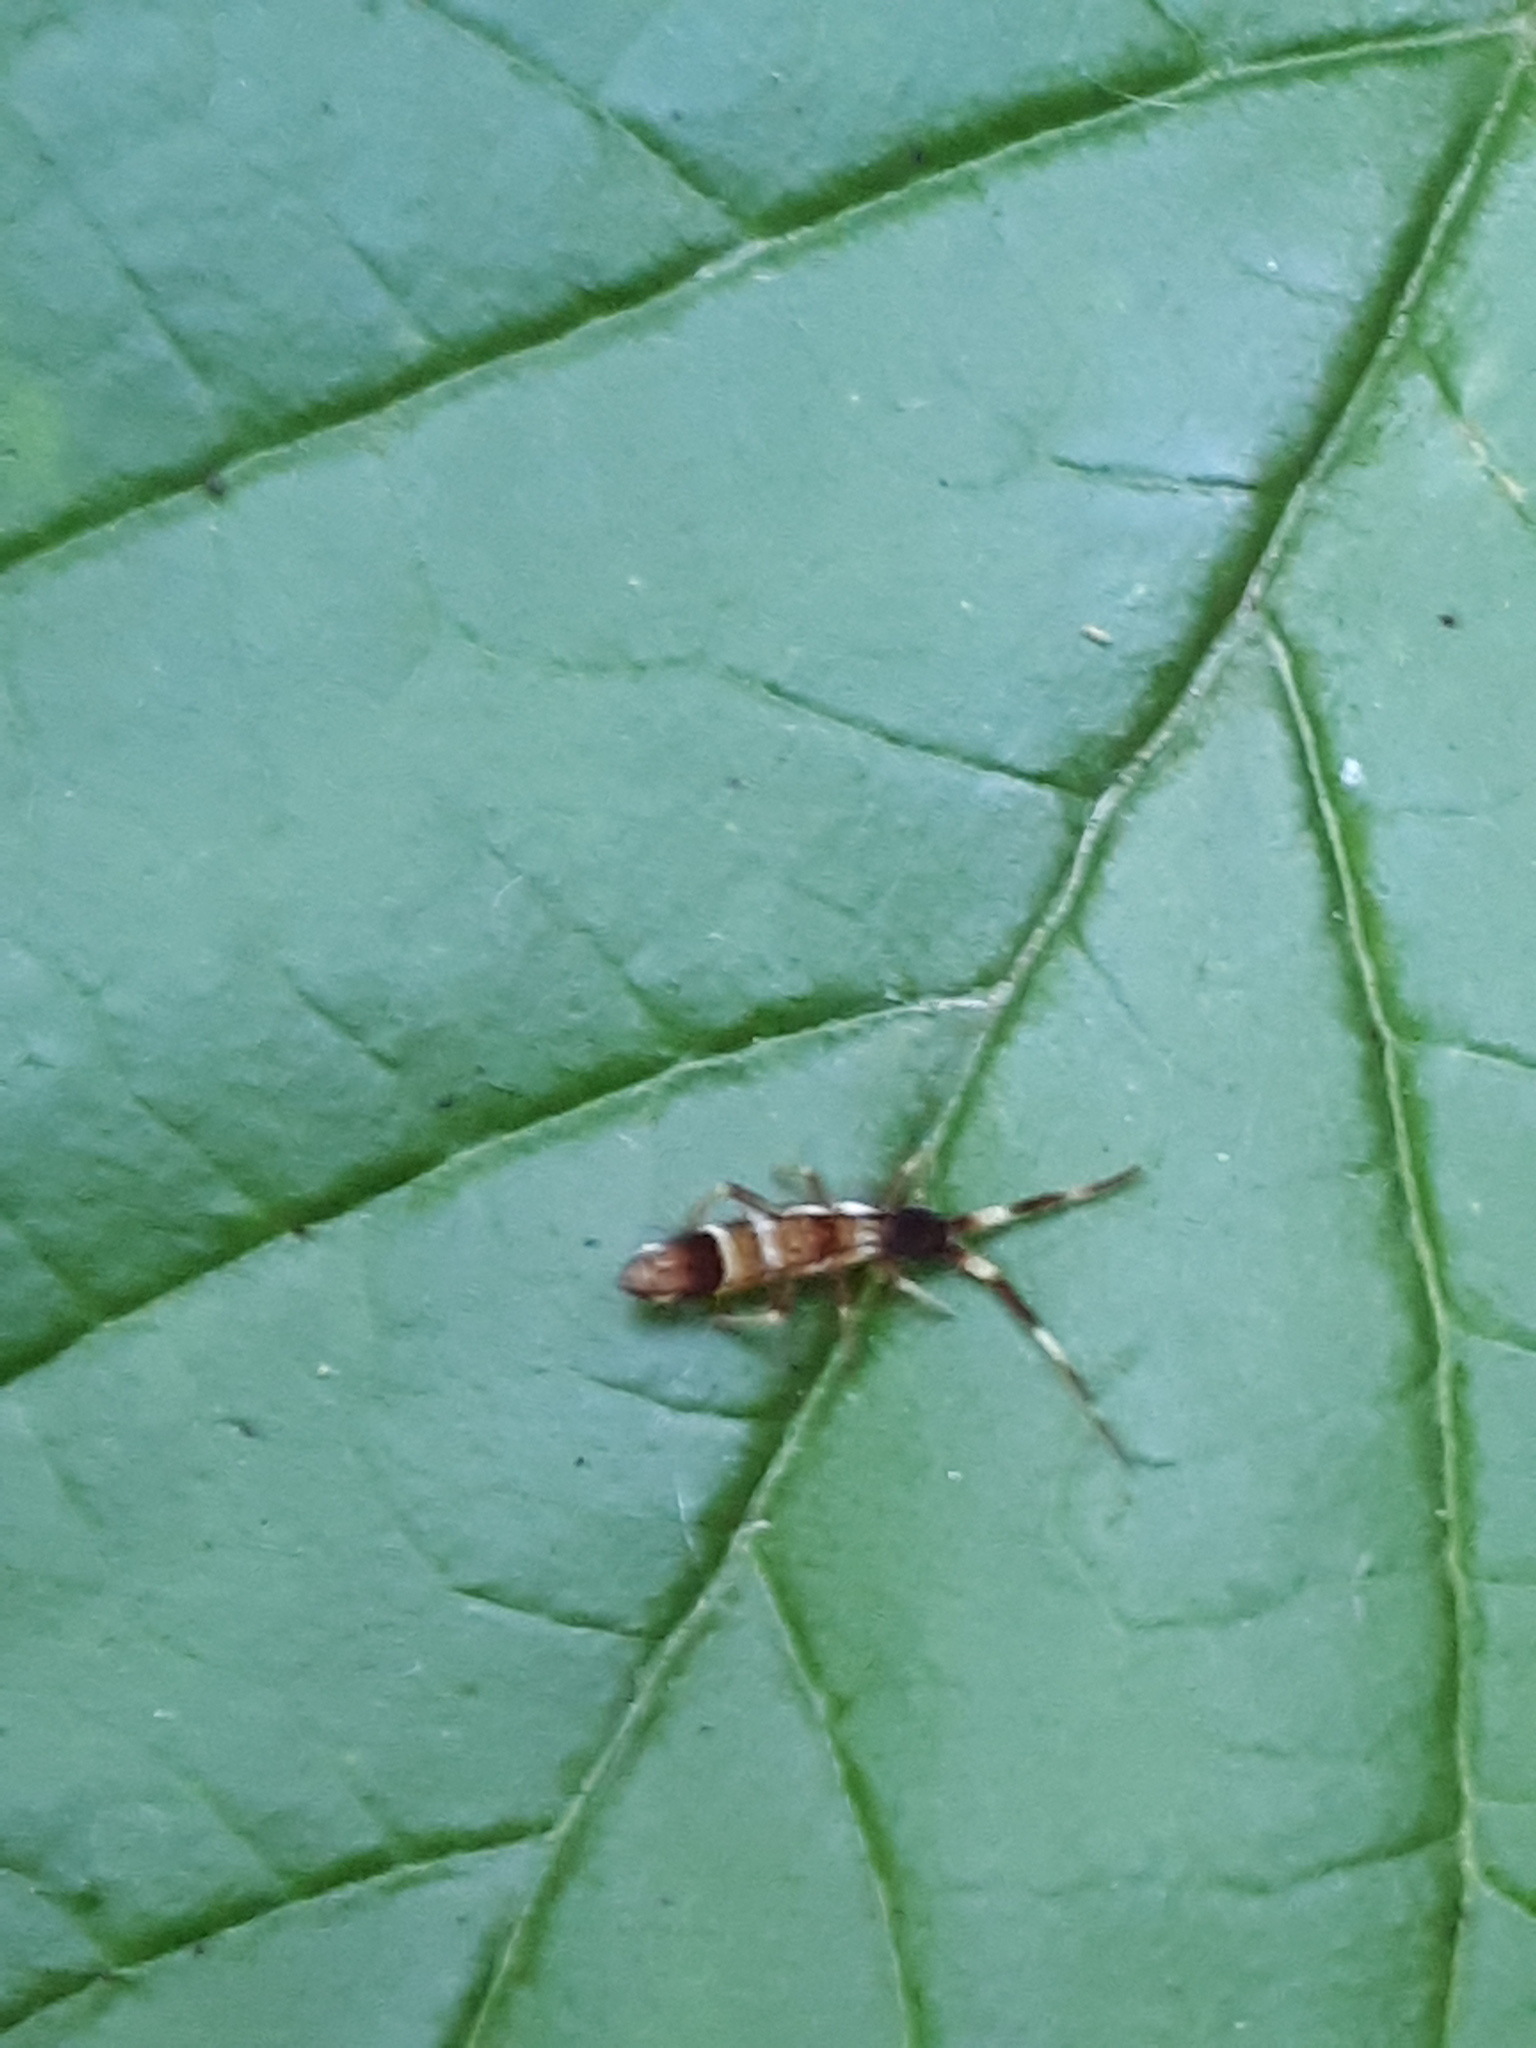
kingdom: Animalia
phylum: Arthropoda
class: Collembola
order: Entomobryomorpha
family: Entomobryidae
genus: Entomobrya
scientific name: Entomobrya nivalis
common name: Cosmopolitan springtail
